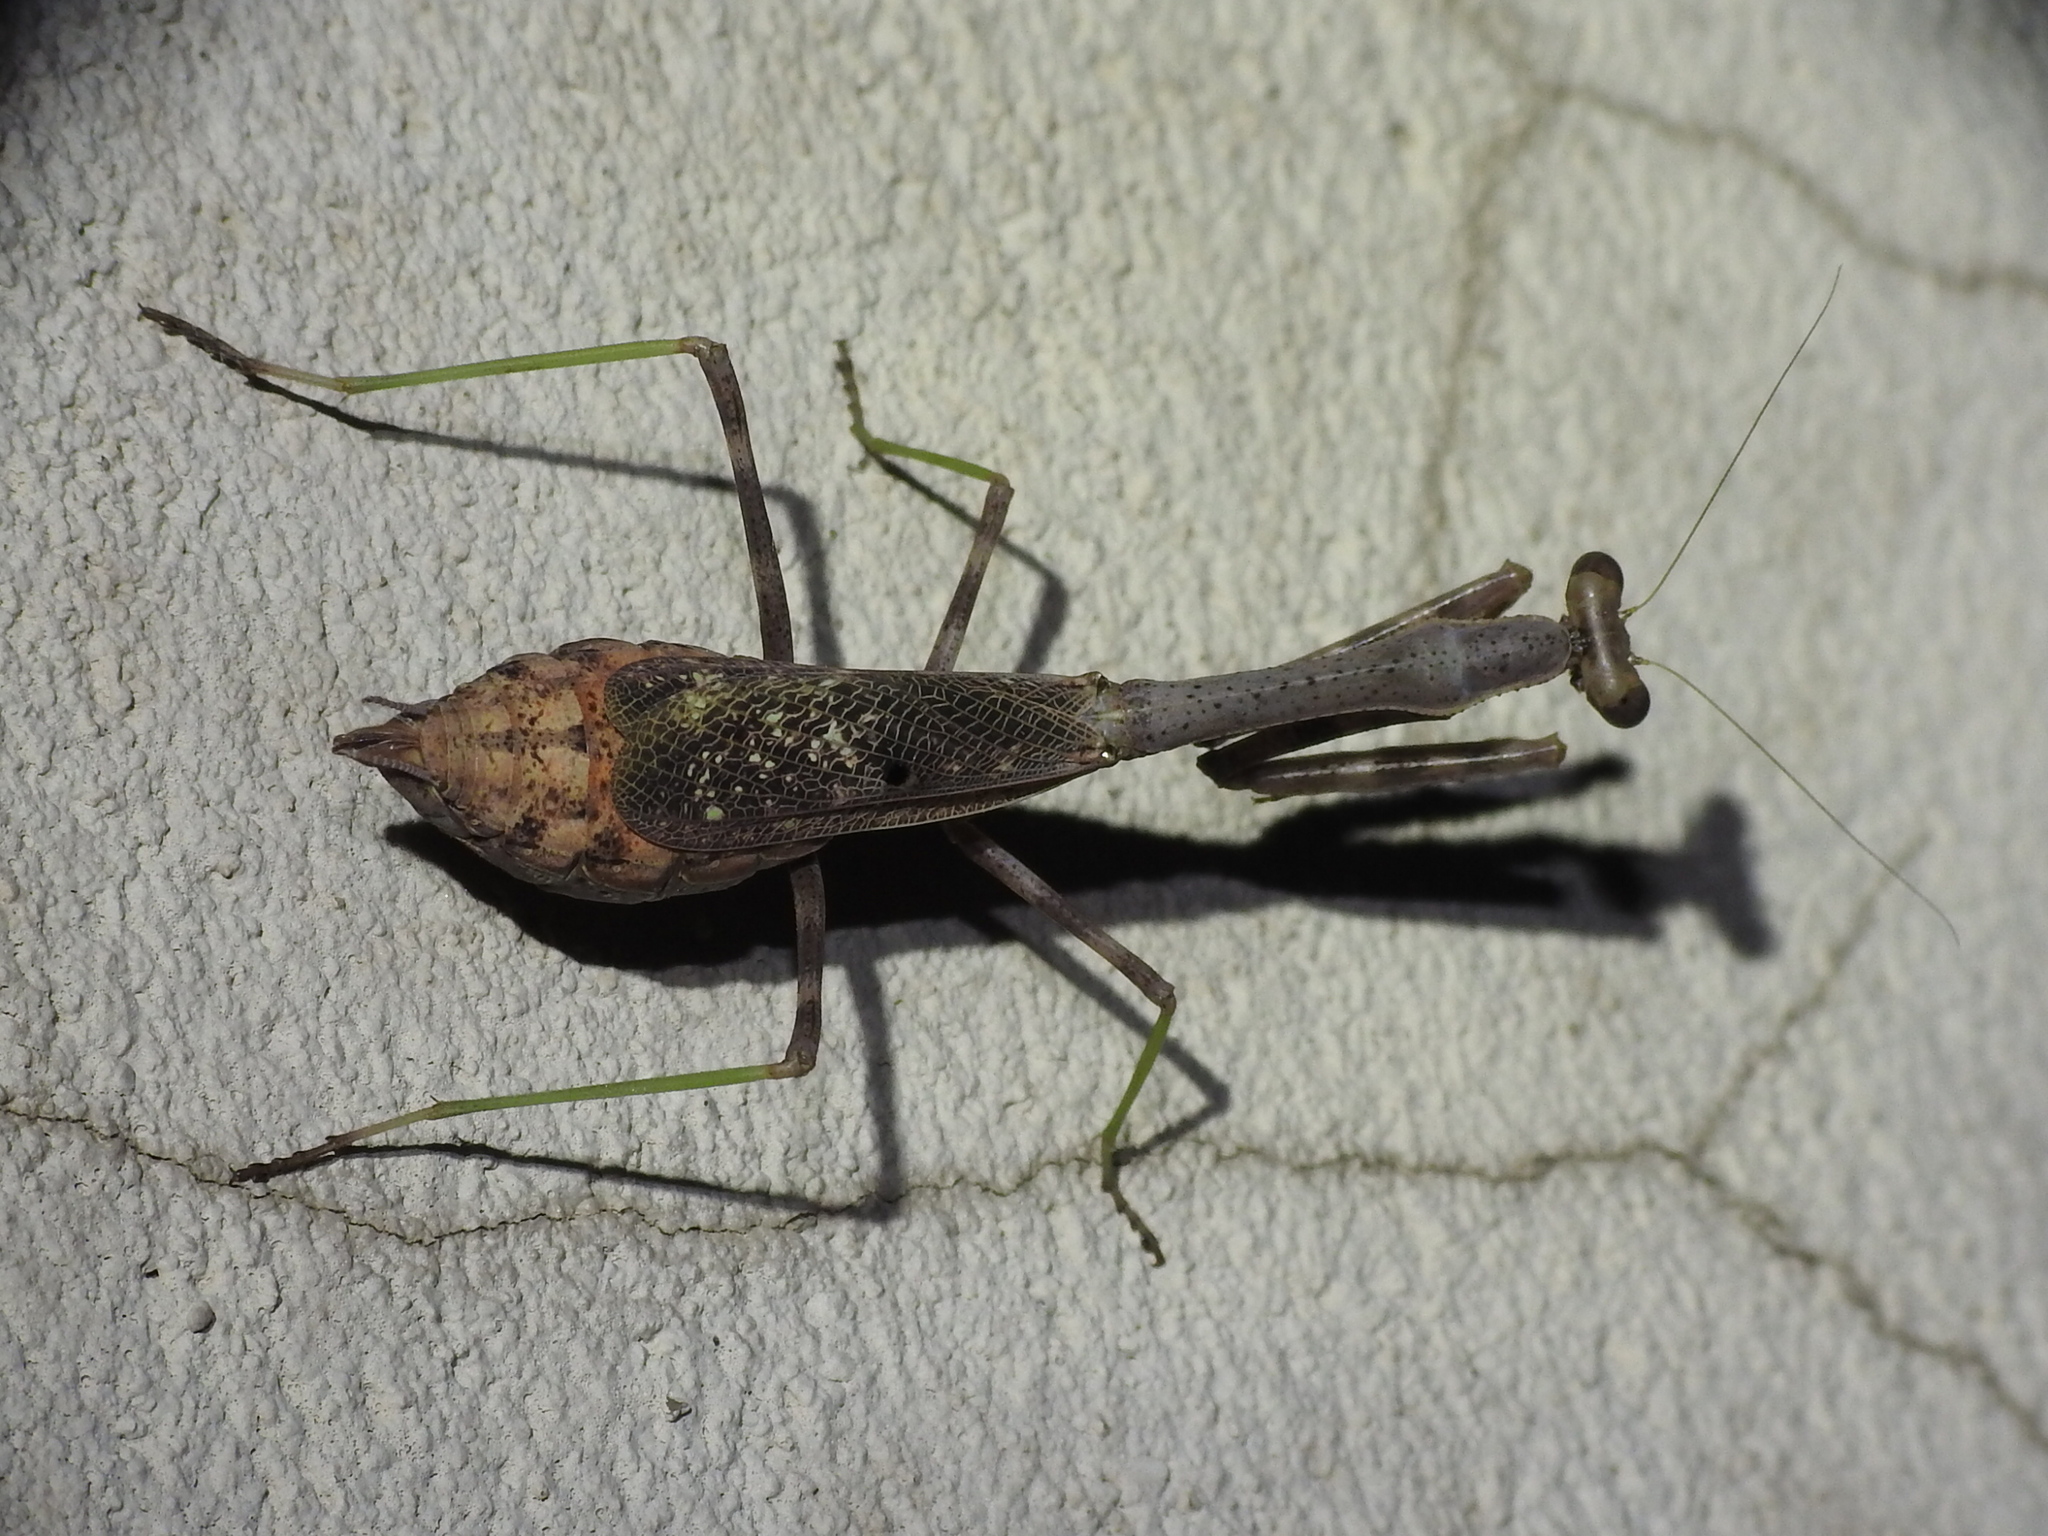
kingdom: Animalia
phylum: Arthropoda
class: Insecta
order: Mantodea
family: Mantidae
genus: Stagmomantis
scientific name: Stagmomantis carolina
